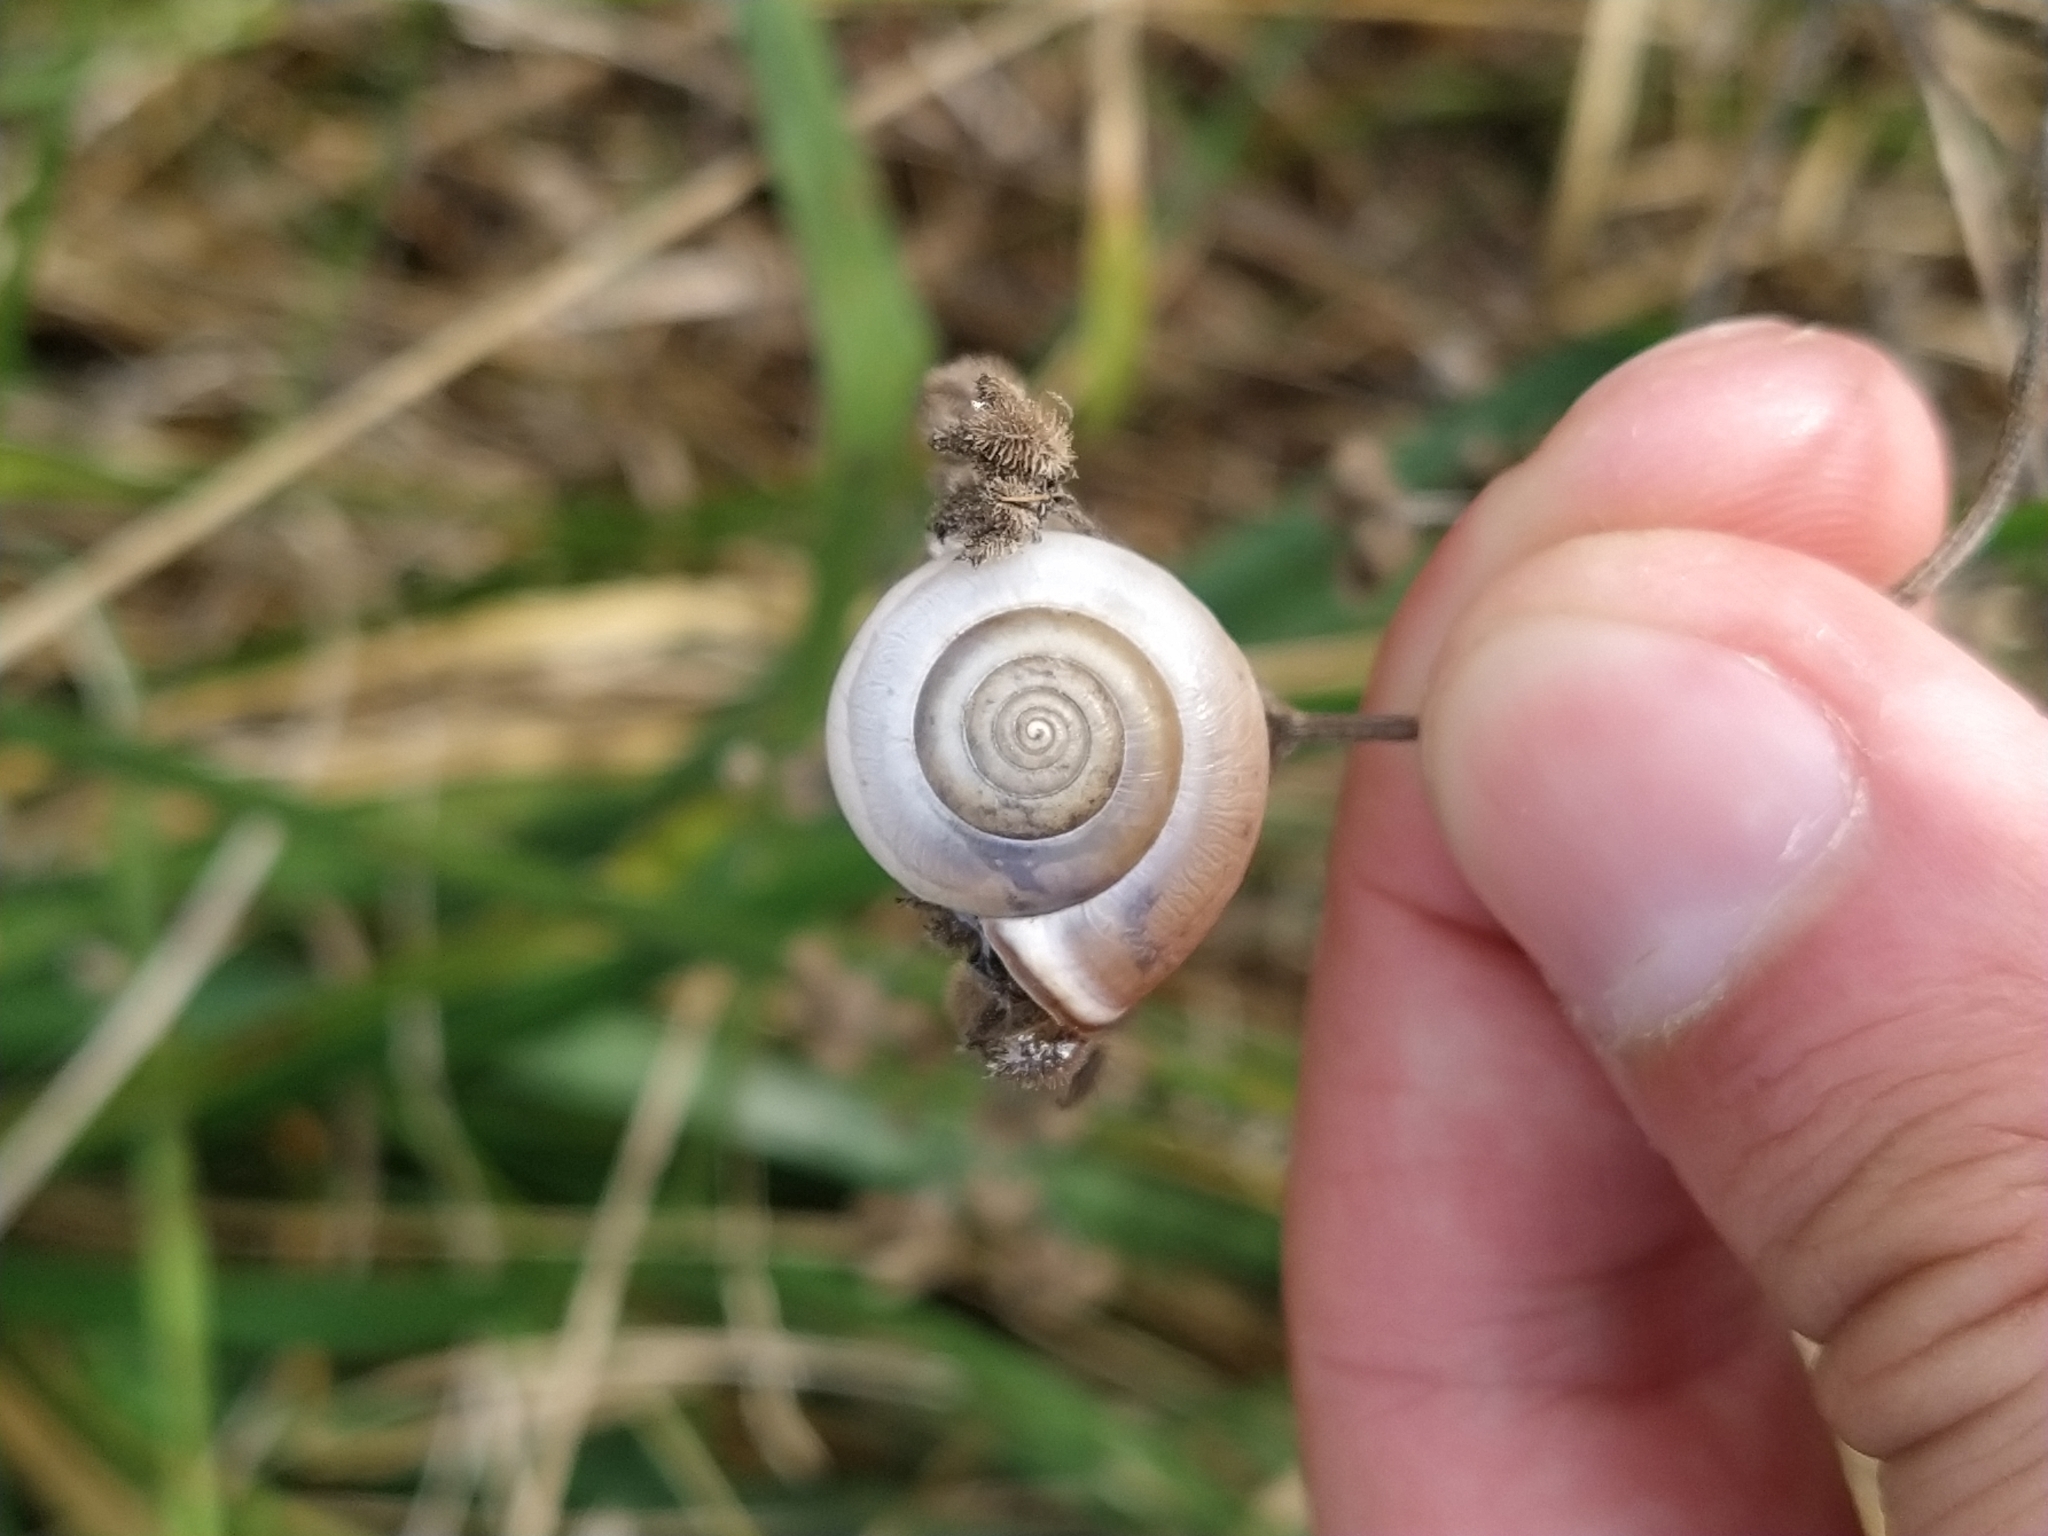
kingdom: Animalia
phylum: Mollusca
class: Gastropoda
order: Stylommatophora
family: Hygromiidae
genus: Monacha
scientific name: Monacha cartusiana
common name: Carthusian snail
